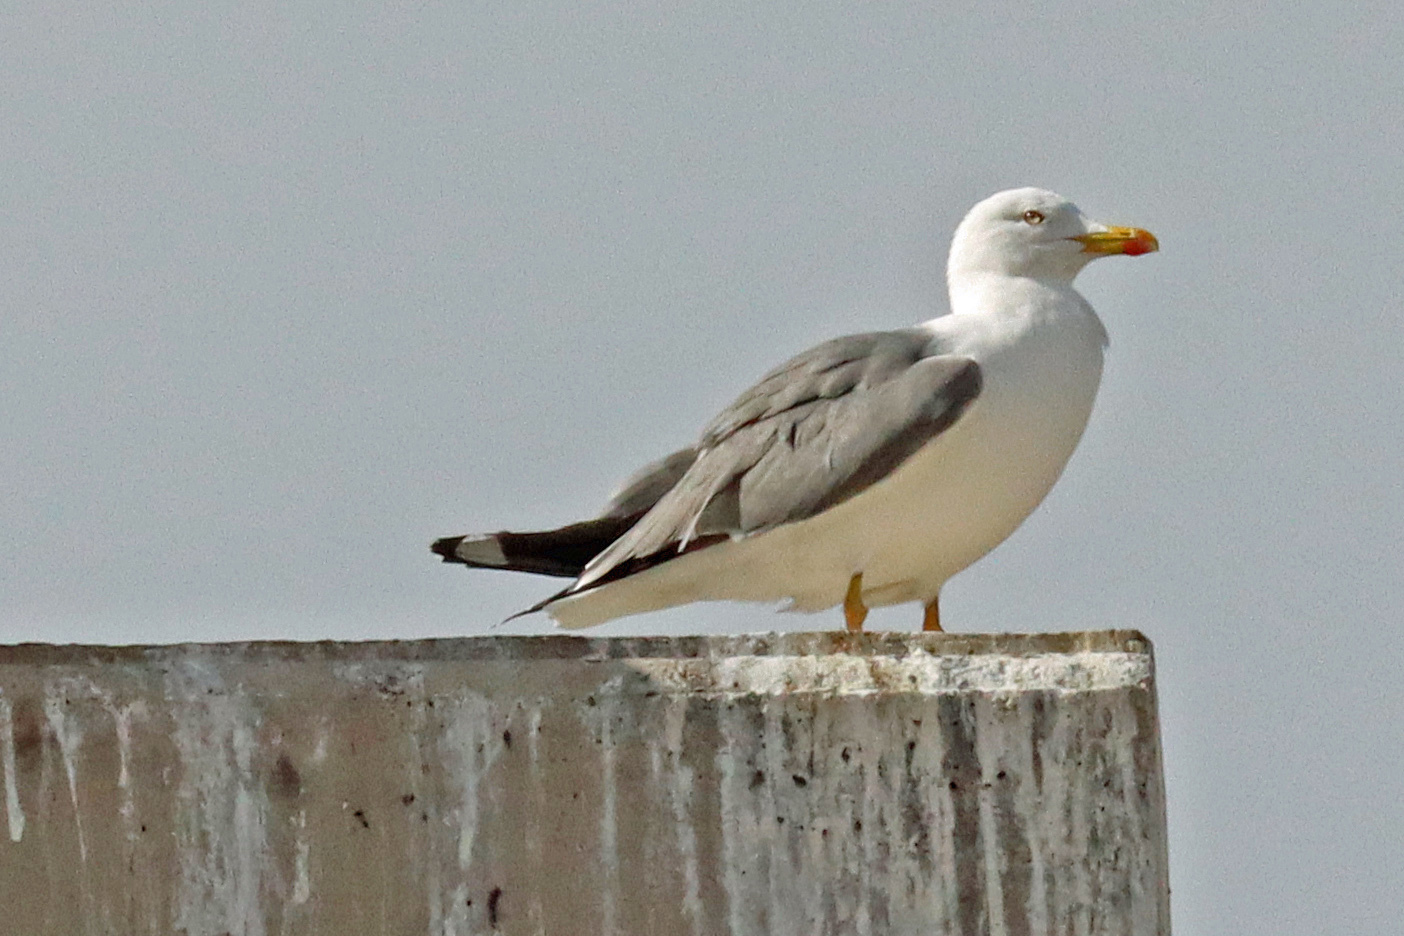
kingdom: Animalia
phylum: Chordata
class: Aves
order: Charadriiformes
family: Laridae
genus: Larus
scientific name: Larus michahellis
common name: Yellow-legged gull
